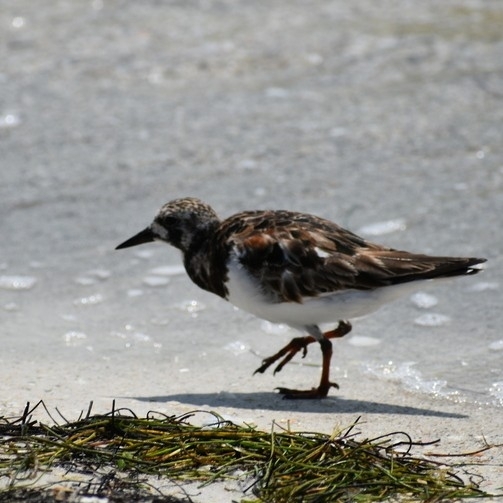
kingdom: Animalia
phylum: Chordata
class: Aves
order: Charadriiformes
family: Scolopacidae
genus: Arenaria
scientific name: Arenaria interpres
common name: Ruddy turnstone
